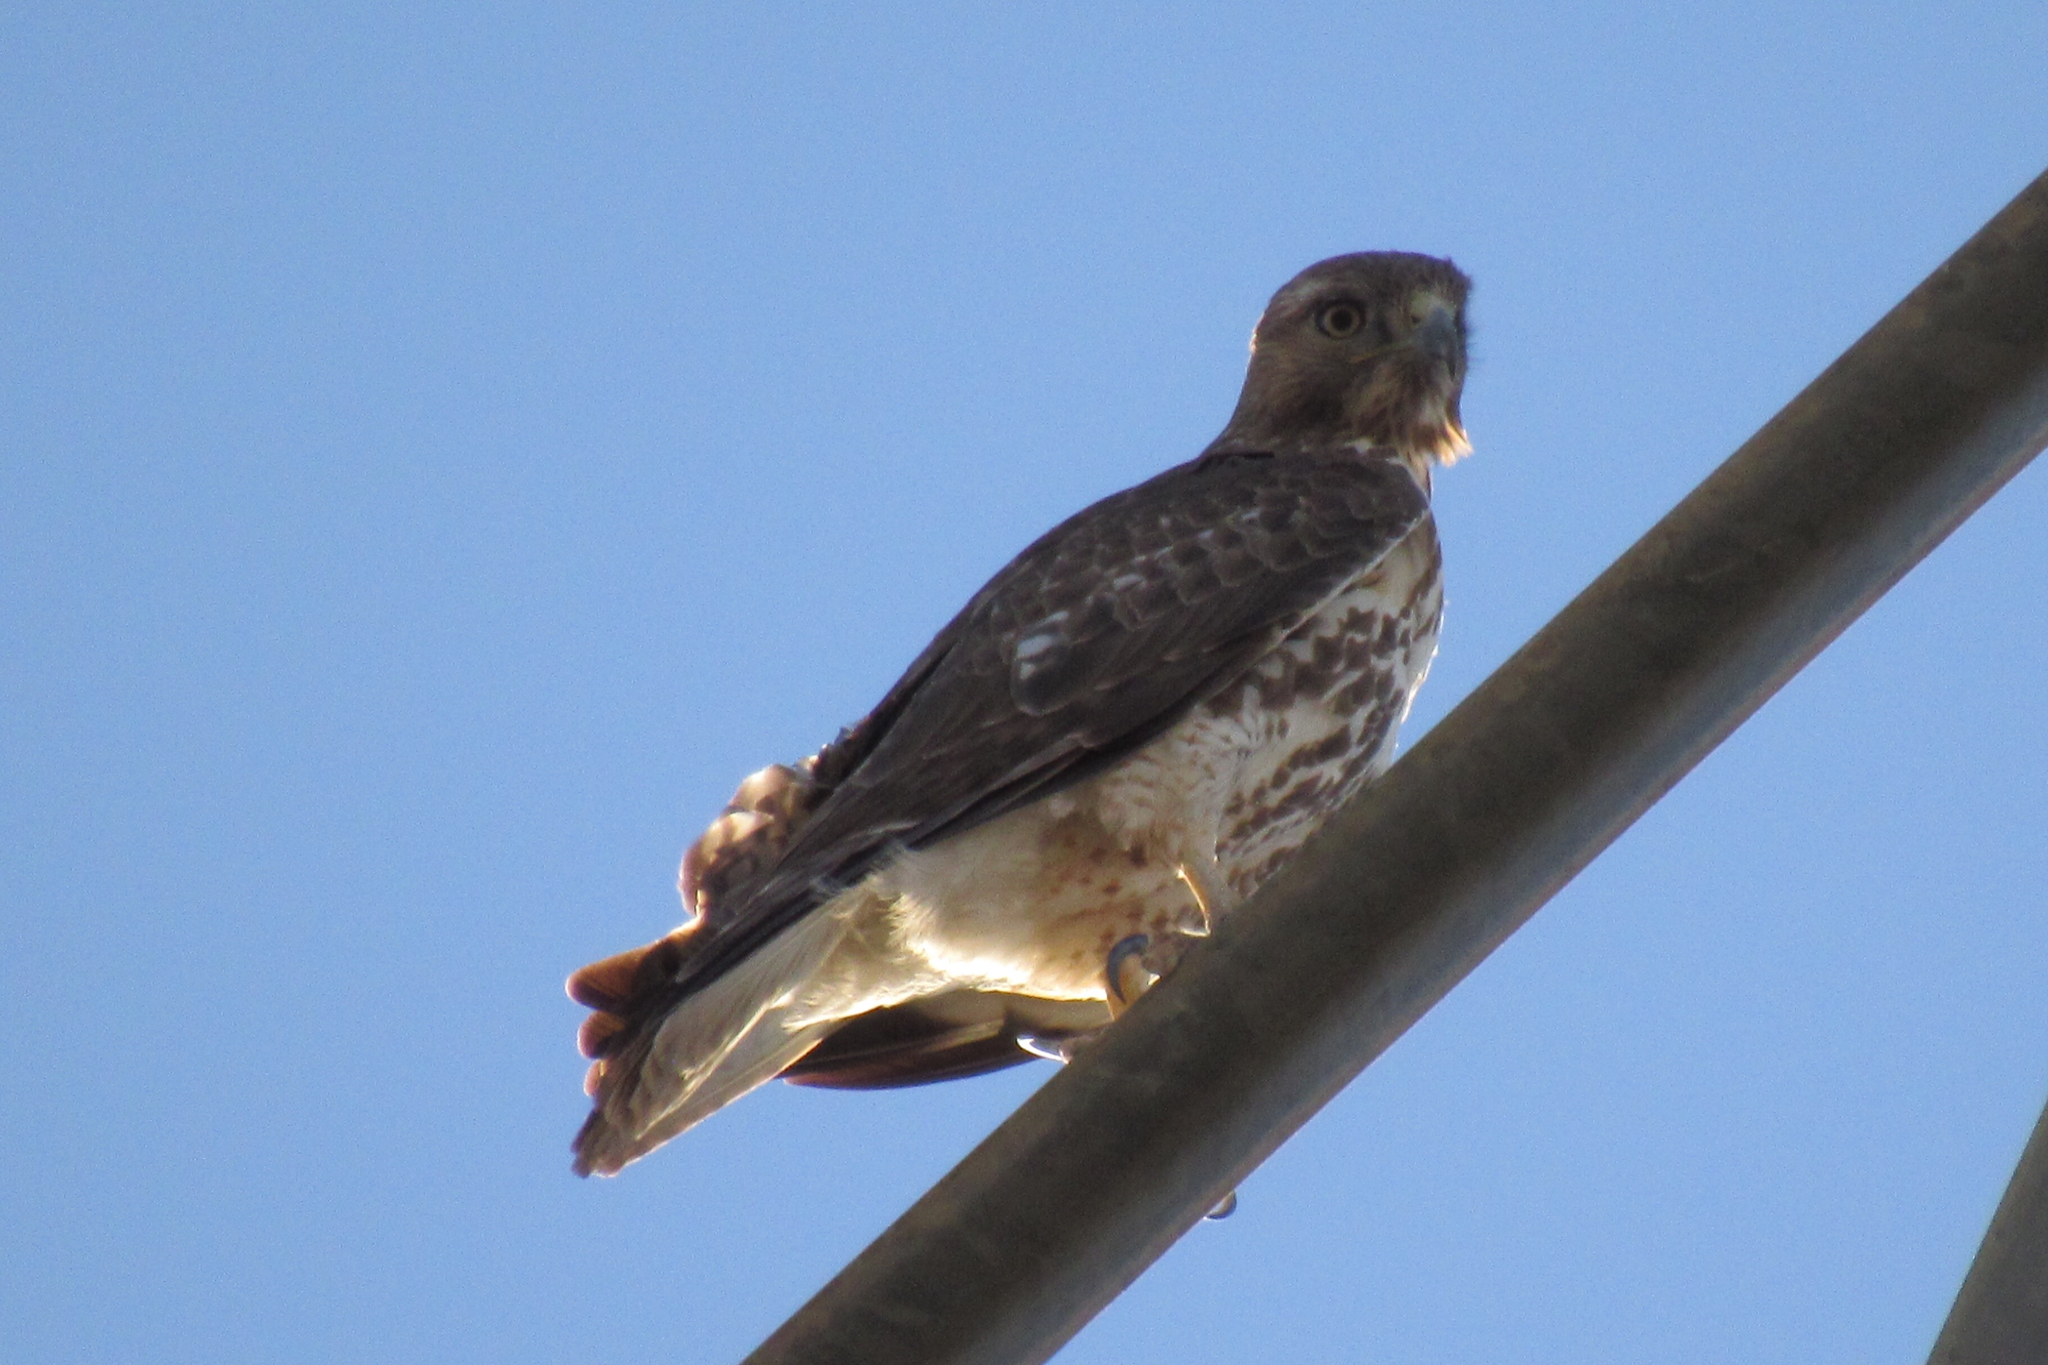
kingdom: Animalia
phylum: Chordata
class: Aves
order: Accipitriformes
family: Accipitridae
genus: Buteo
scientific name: Buteo jamaicensis
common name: Red-tailed hawk
